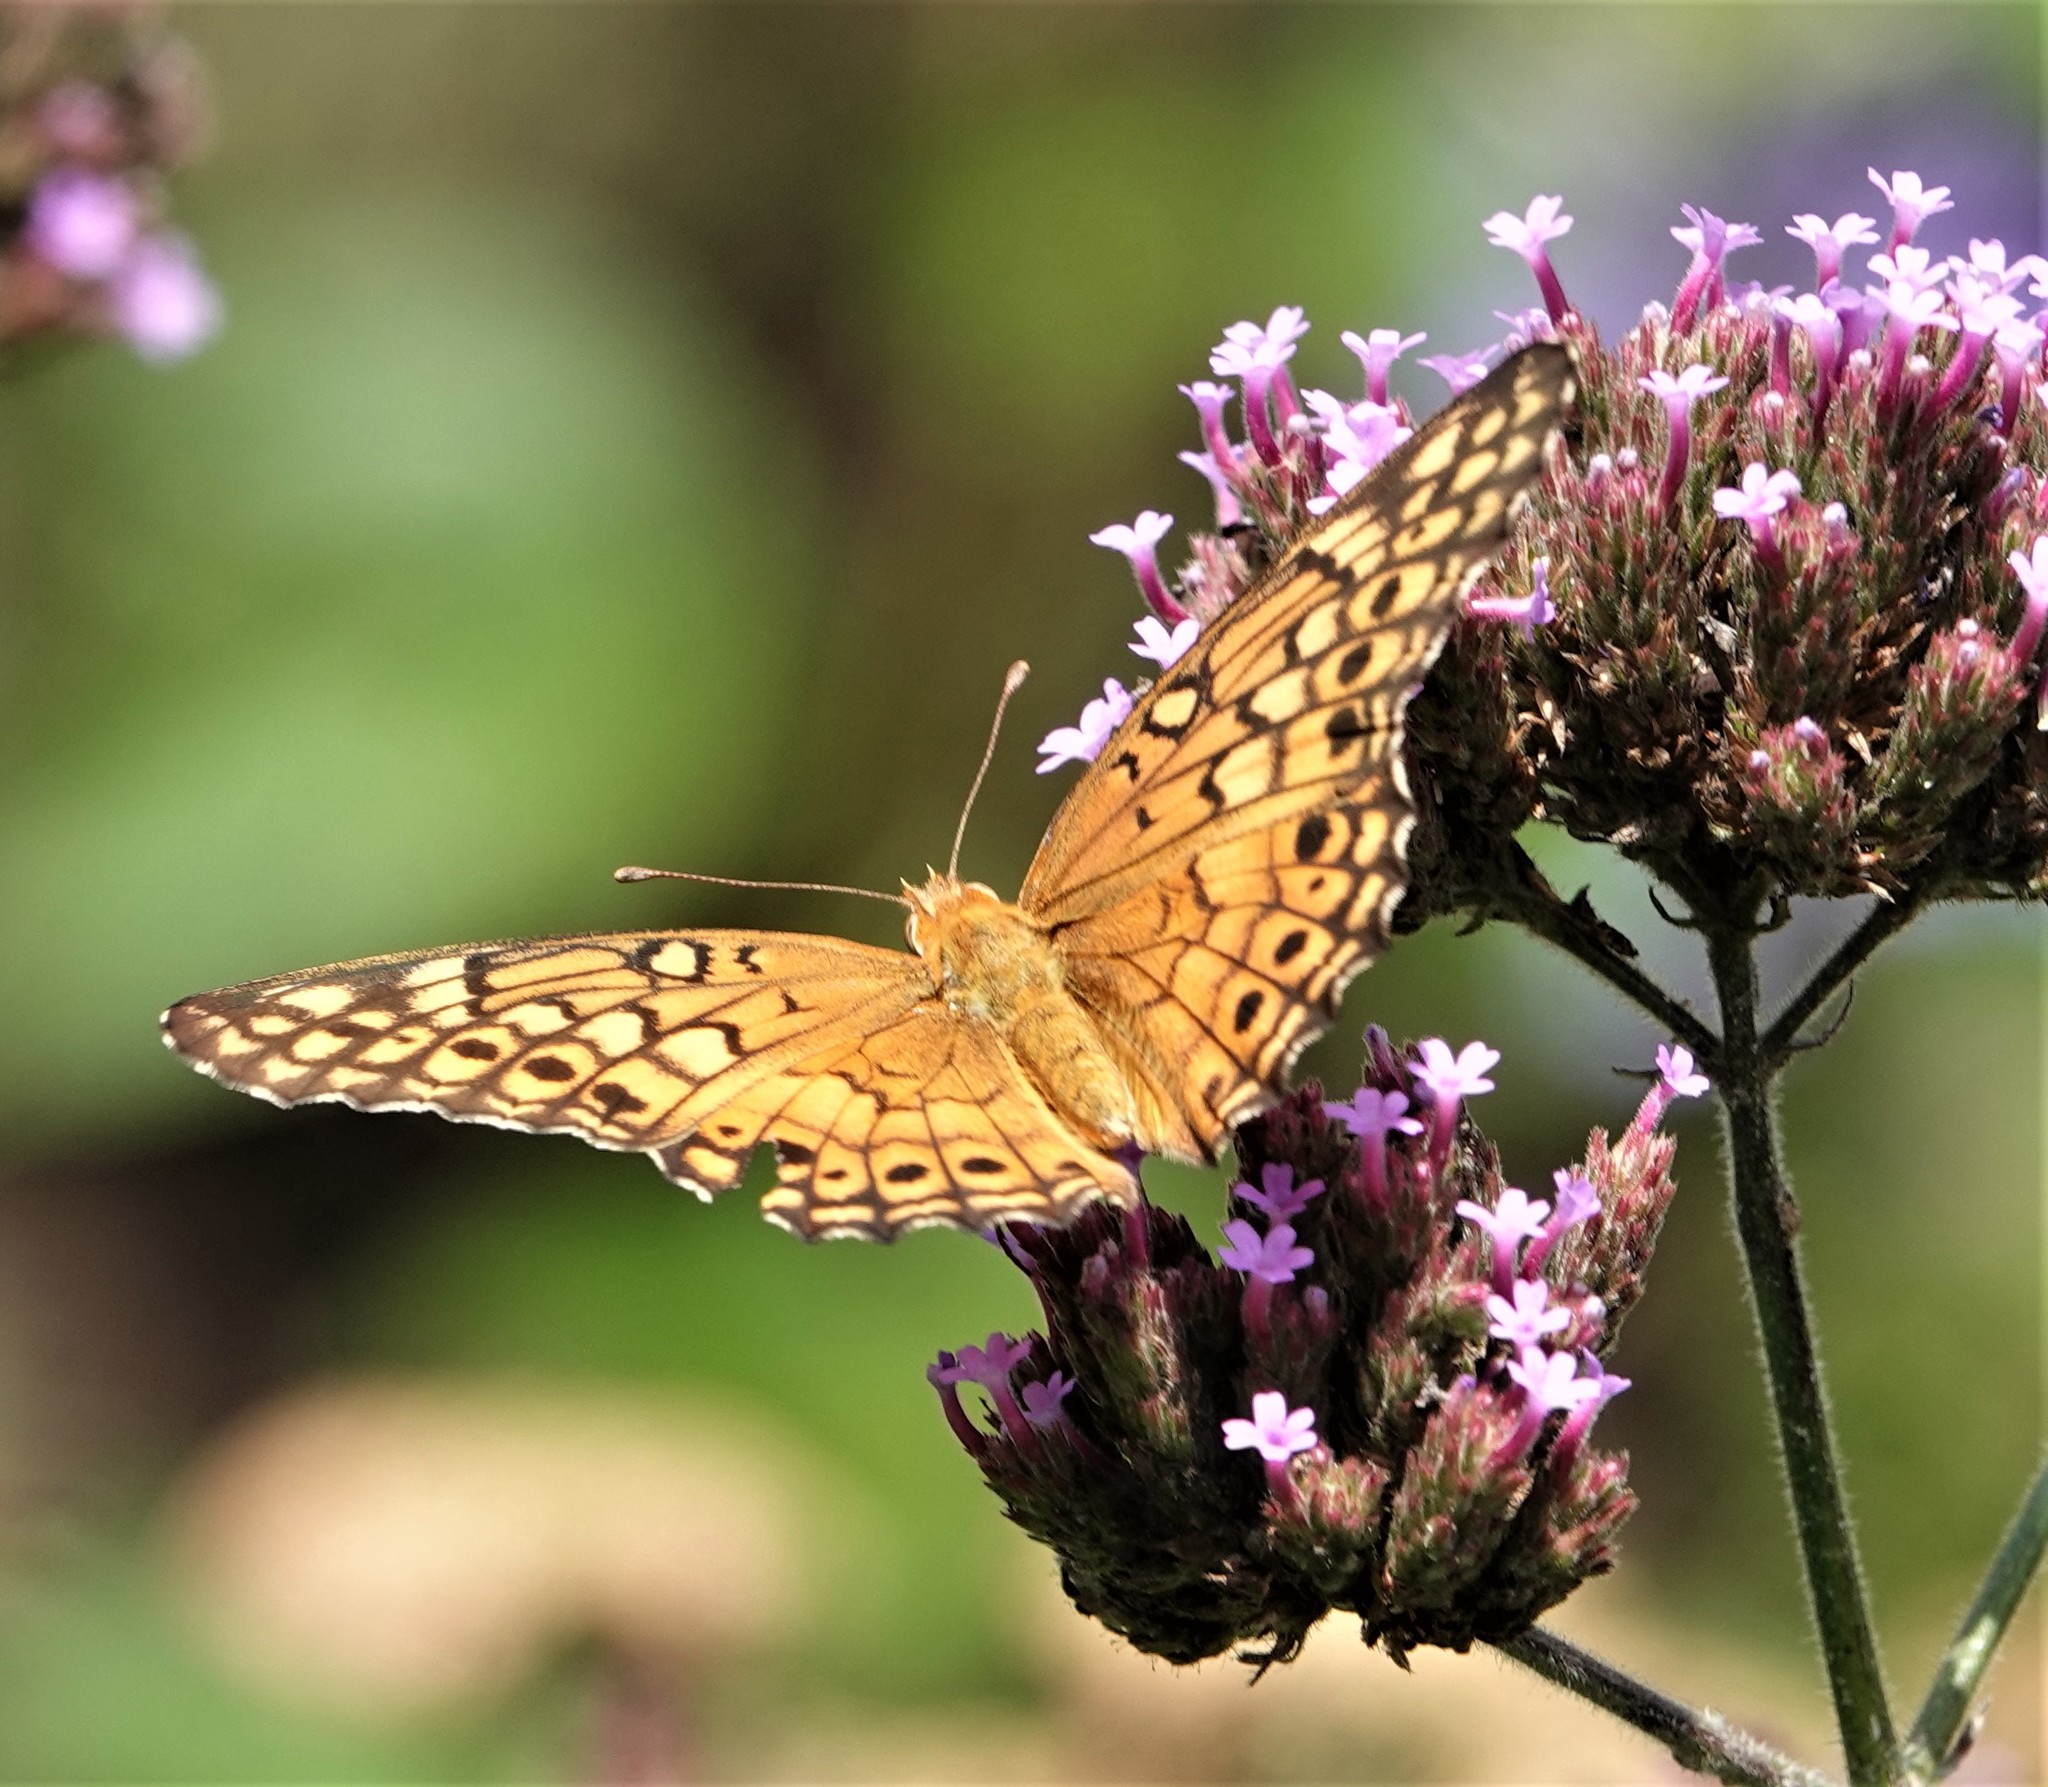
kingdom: Animalia
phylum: Arthropoda
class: Insecta
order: Lepidoptera
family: Nymphalidae
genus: Euptoieta
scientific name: Euptoieta claudia
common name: Variegated fritillary
